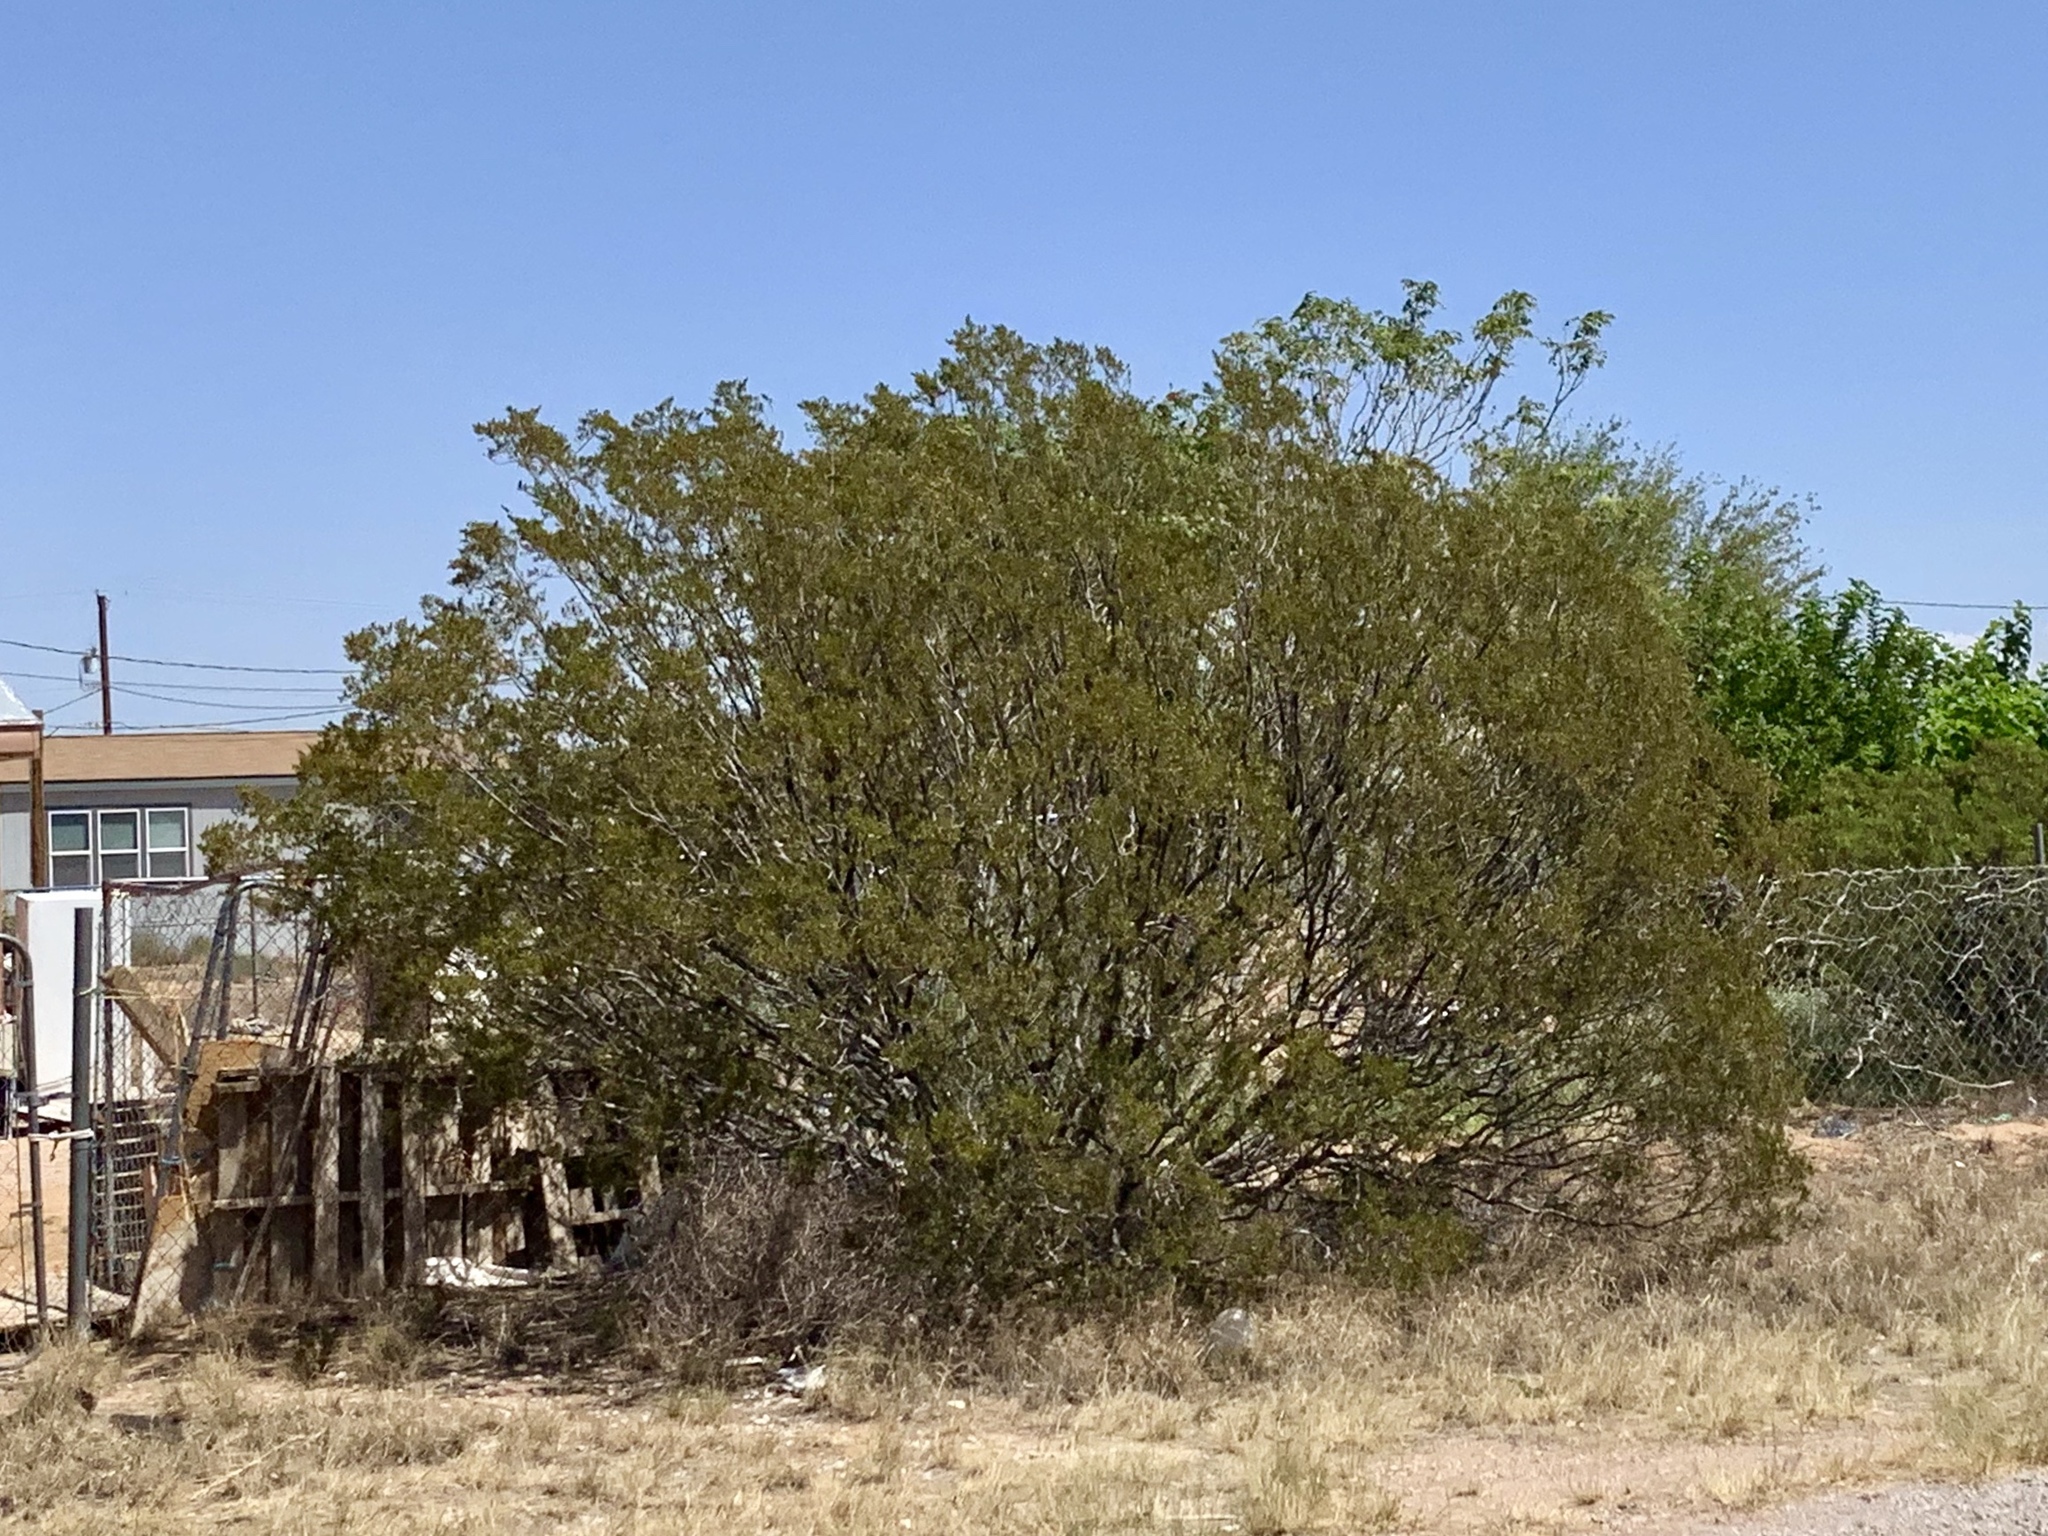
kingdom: Plantae
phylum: Tracheophyta
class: Magnoliopsida
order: Zygophyllales
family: Zygophyllaceae
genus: Larrea
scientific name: Larrea tridentata
